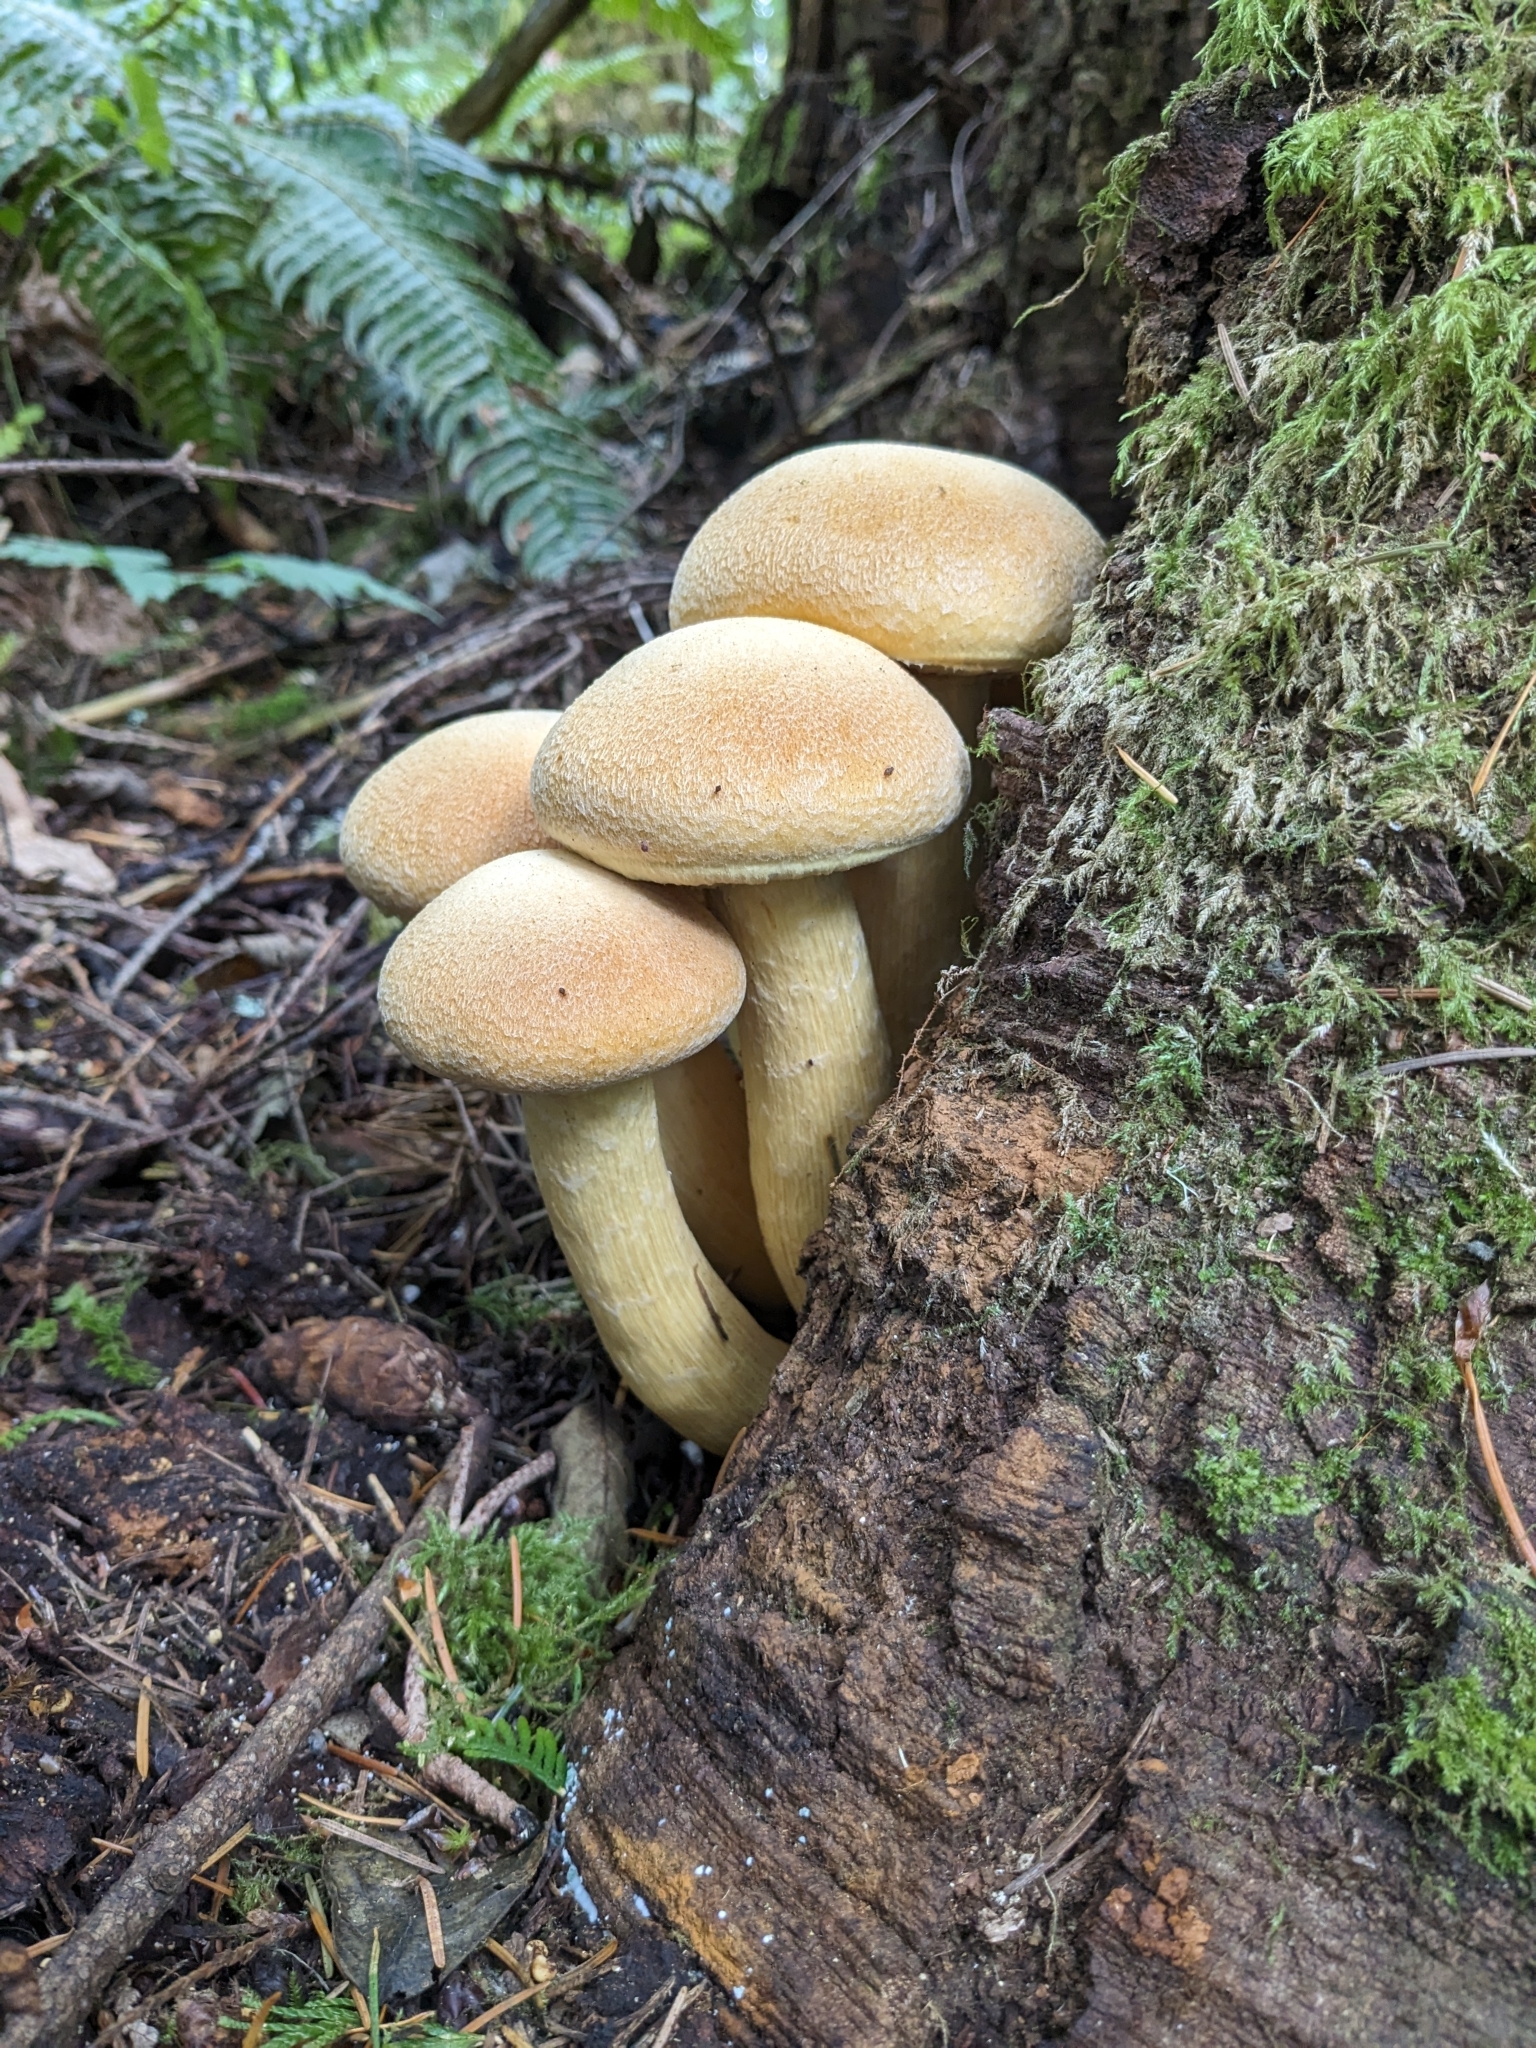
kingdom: Fungi
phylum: Basidiomycota
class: Agaricomycetes
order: Agaricales
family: Hymenogastraceae
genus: Gymnopilus
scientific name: Gymnopilus ventricosus
